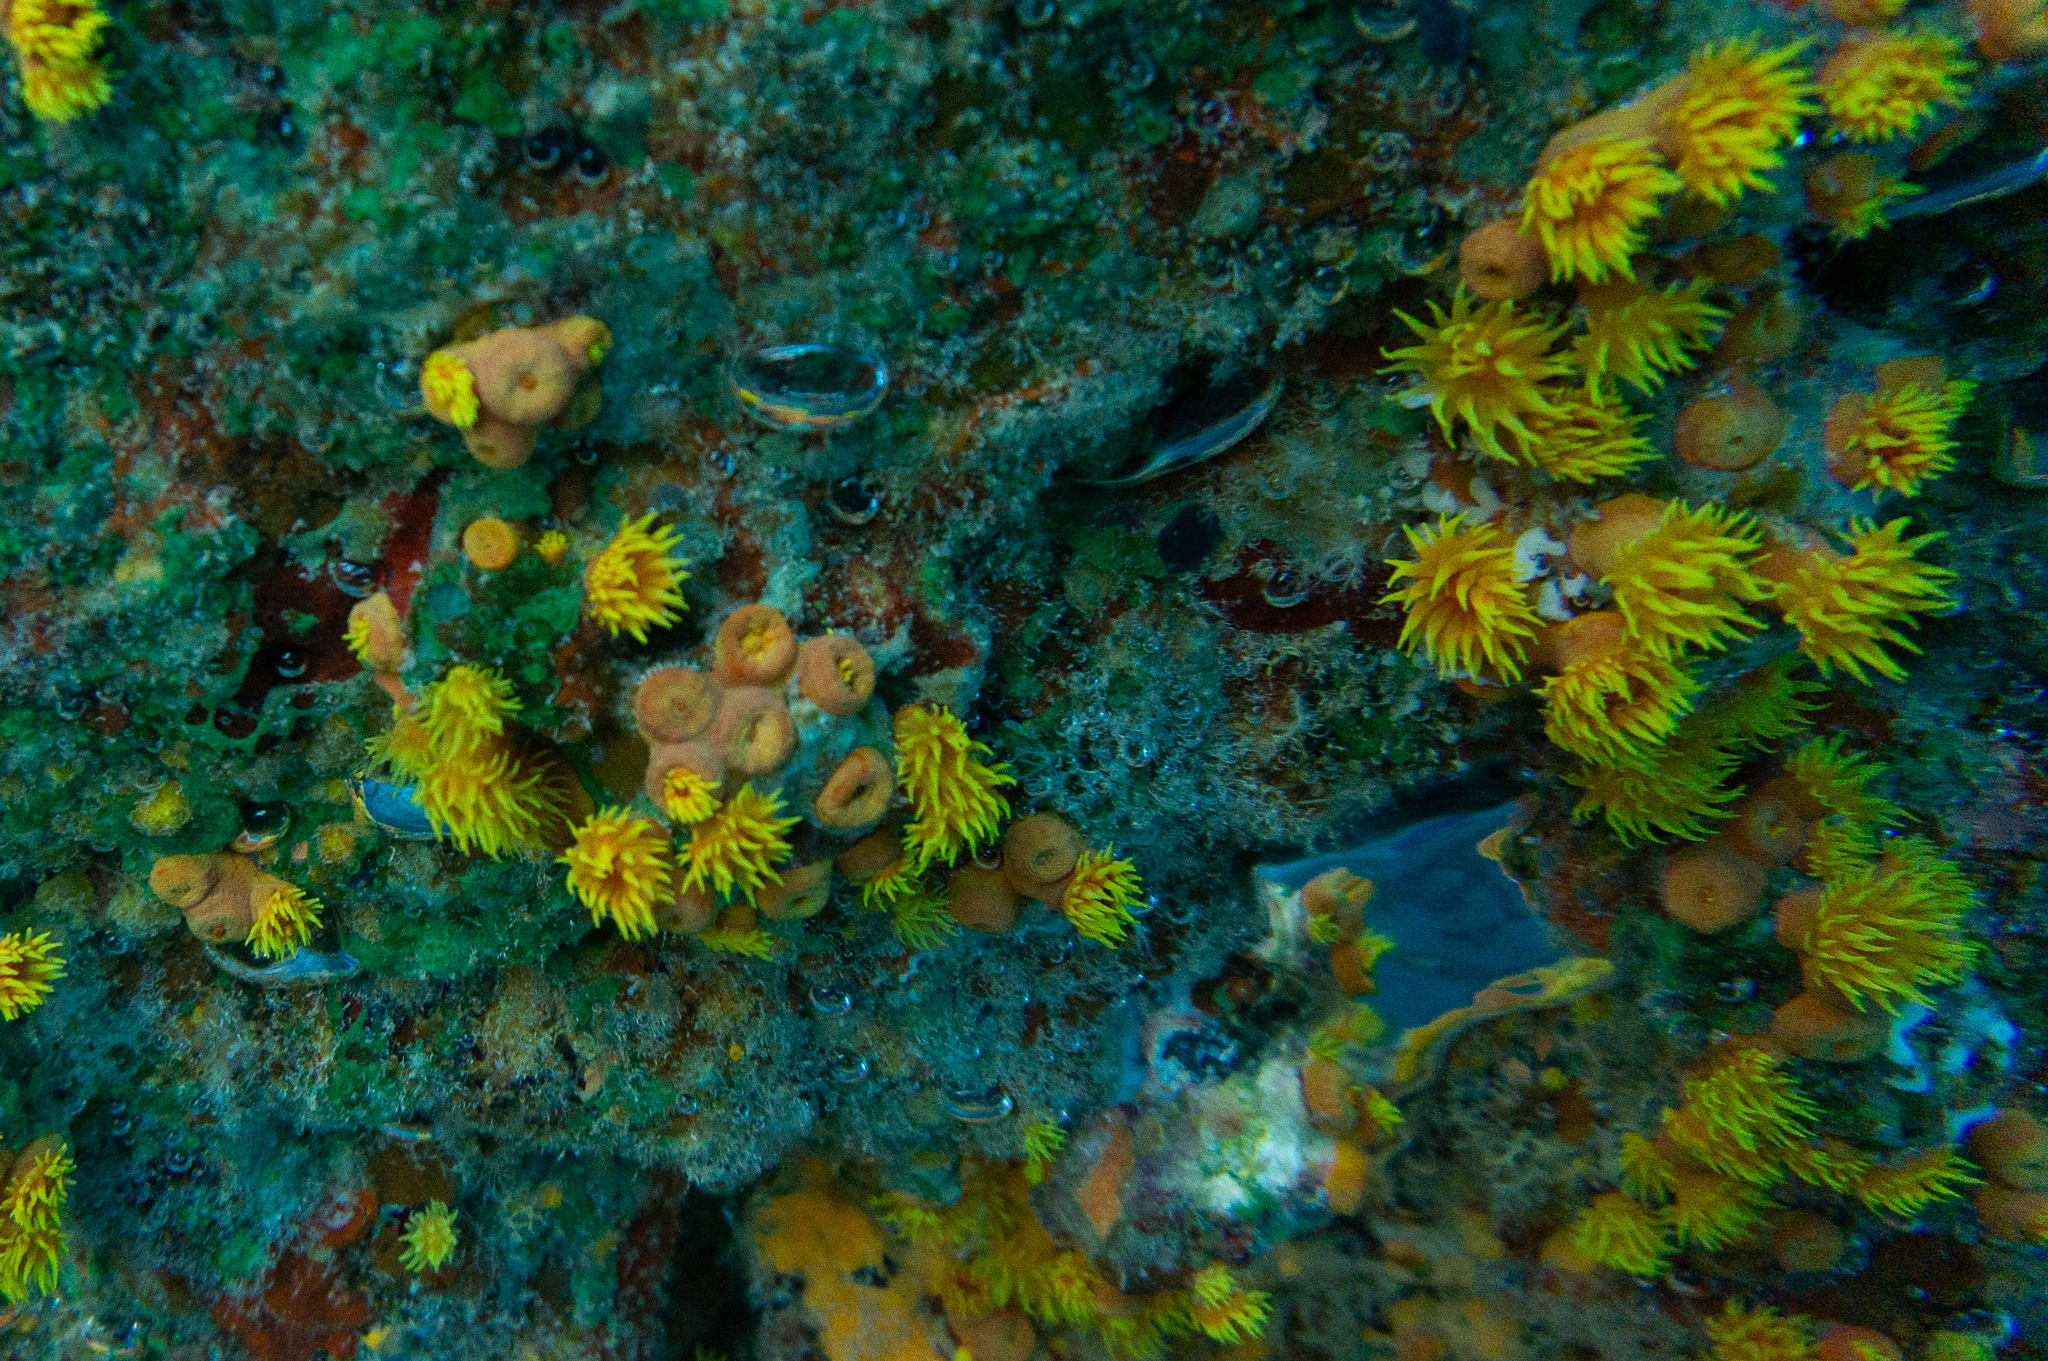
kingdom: Animalia
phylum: Cnidaria
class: Anthozoa
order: Scleractinia
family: Dendrophylliidae
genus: Tubastraea
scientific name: Tubastraea coccinea
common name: Orange cup coral
